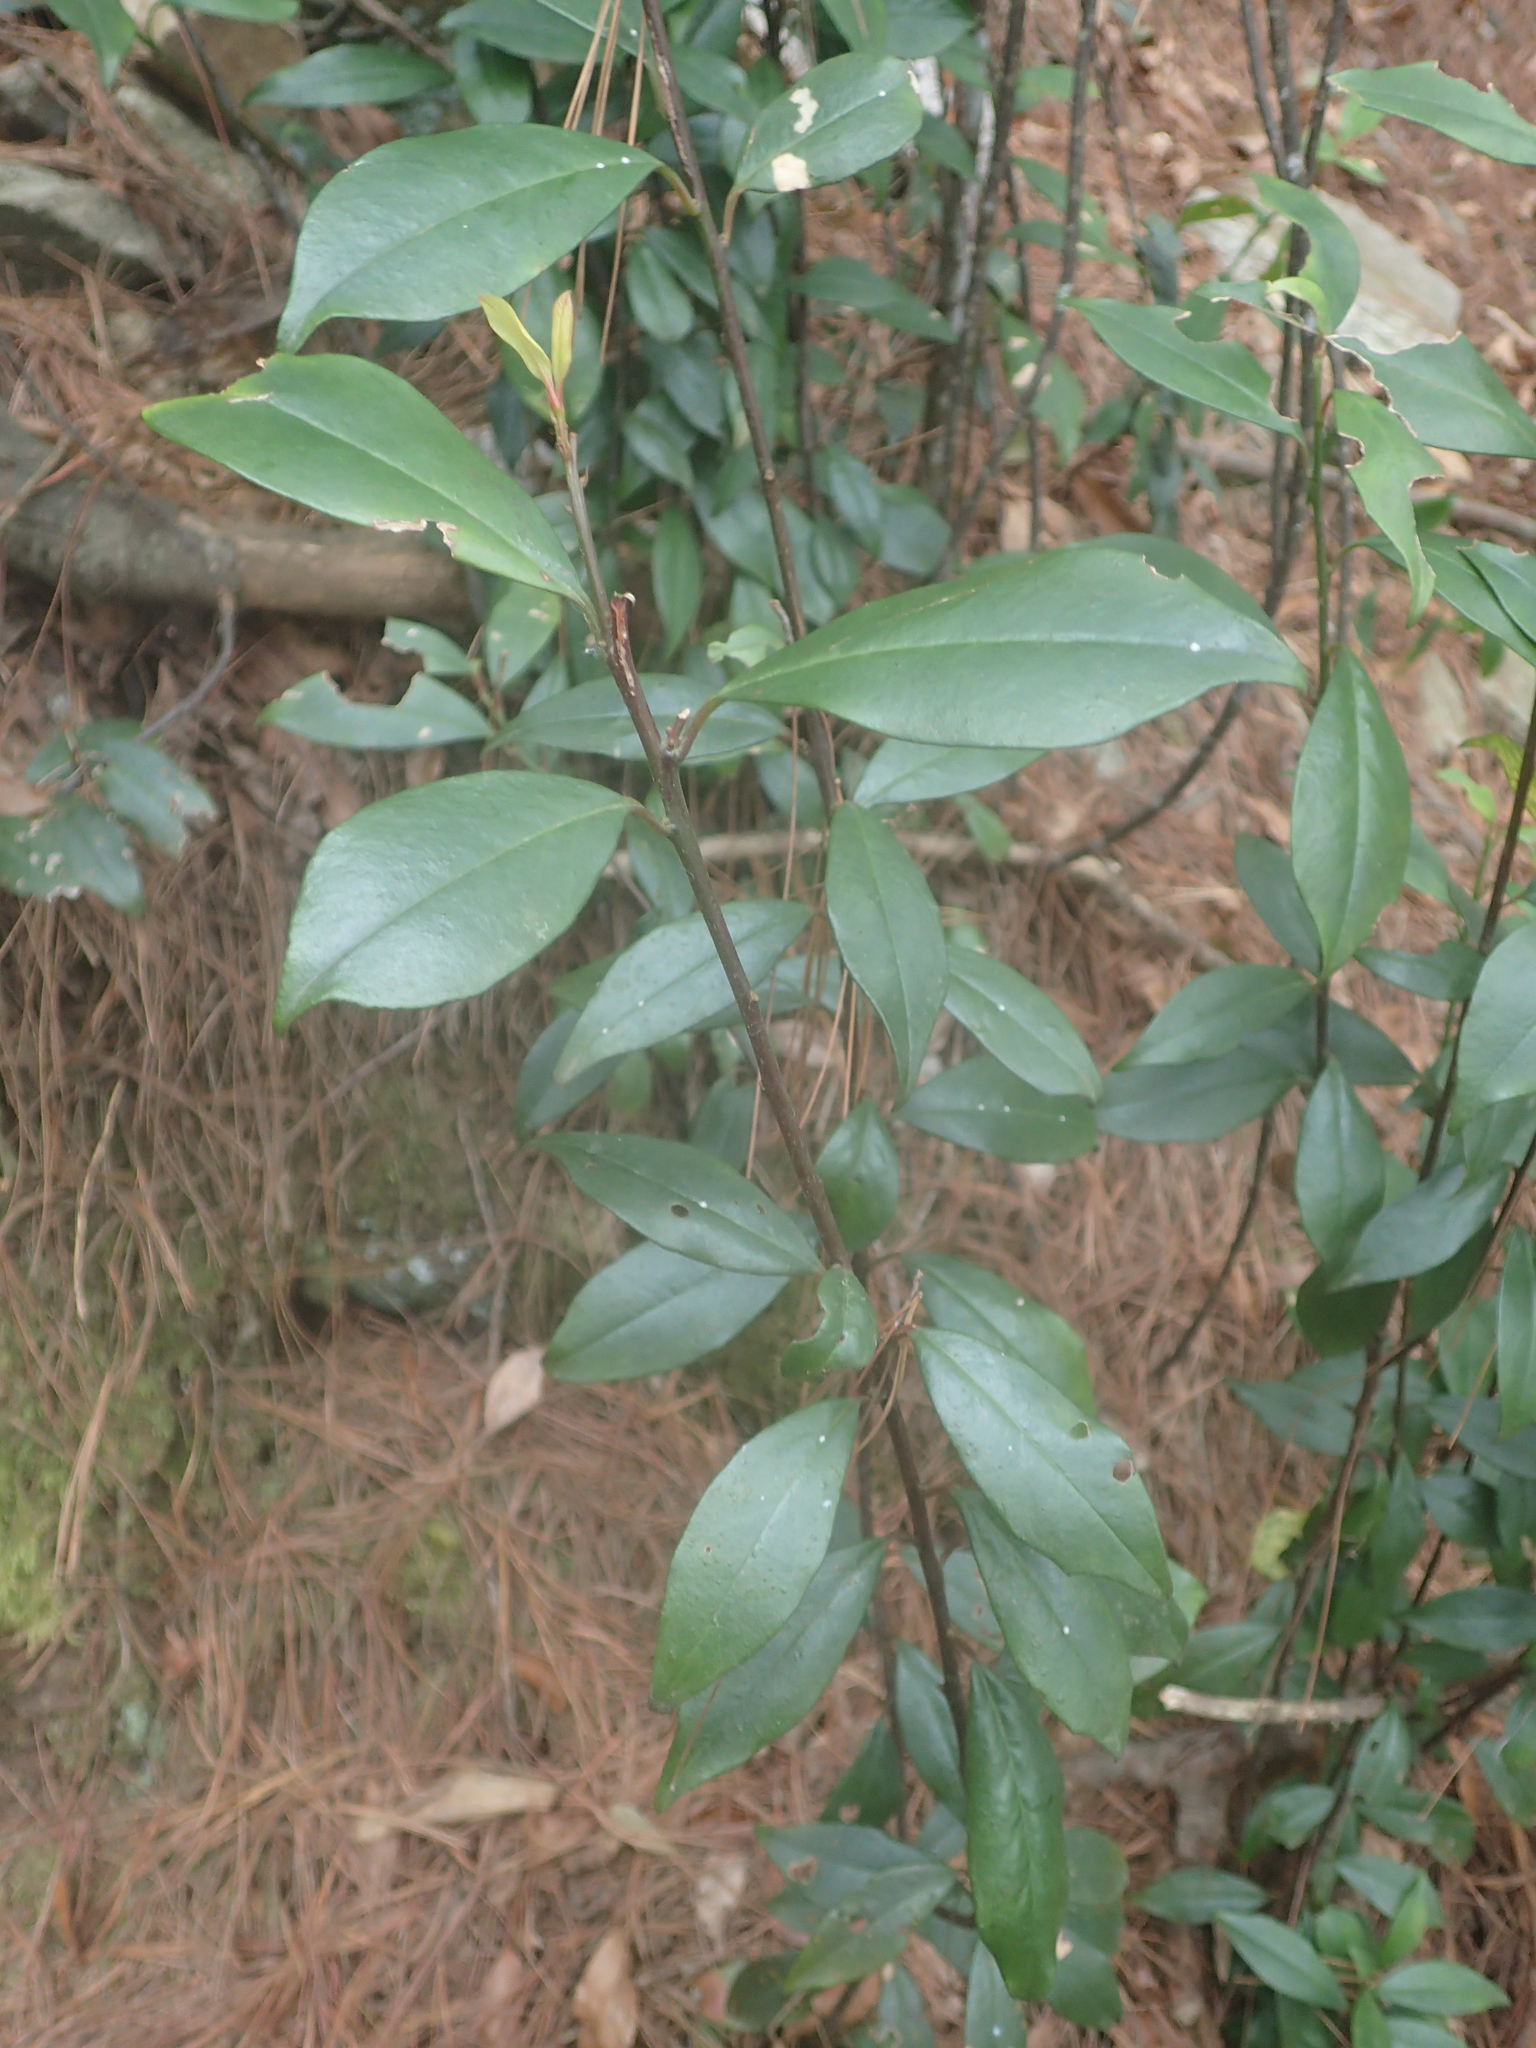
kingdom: Plantae
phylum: Tracheophyta
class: Magnoliopsida
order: Ericales
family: Primulaceae
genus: Myrsine
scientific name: Myrsine stolonifera
